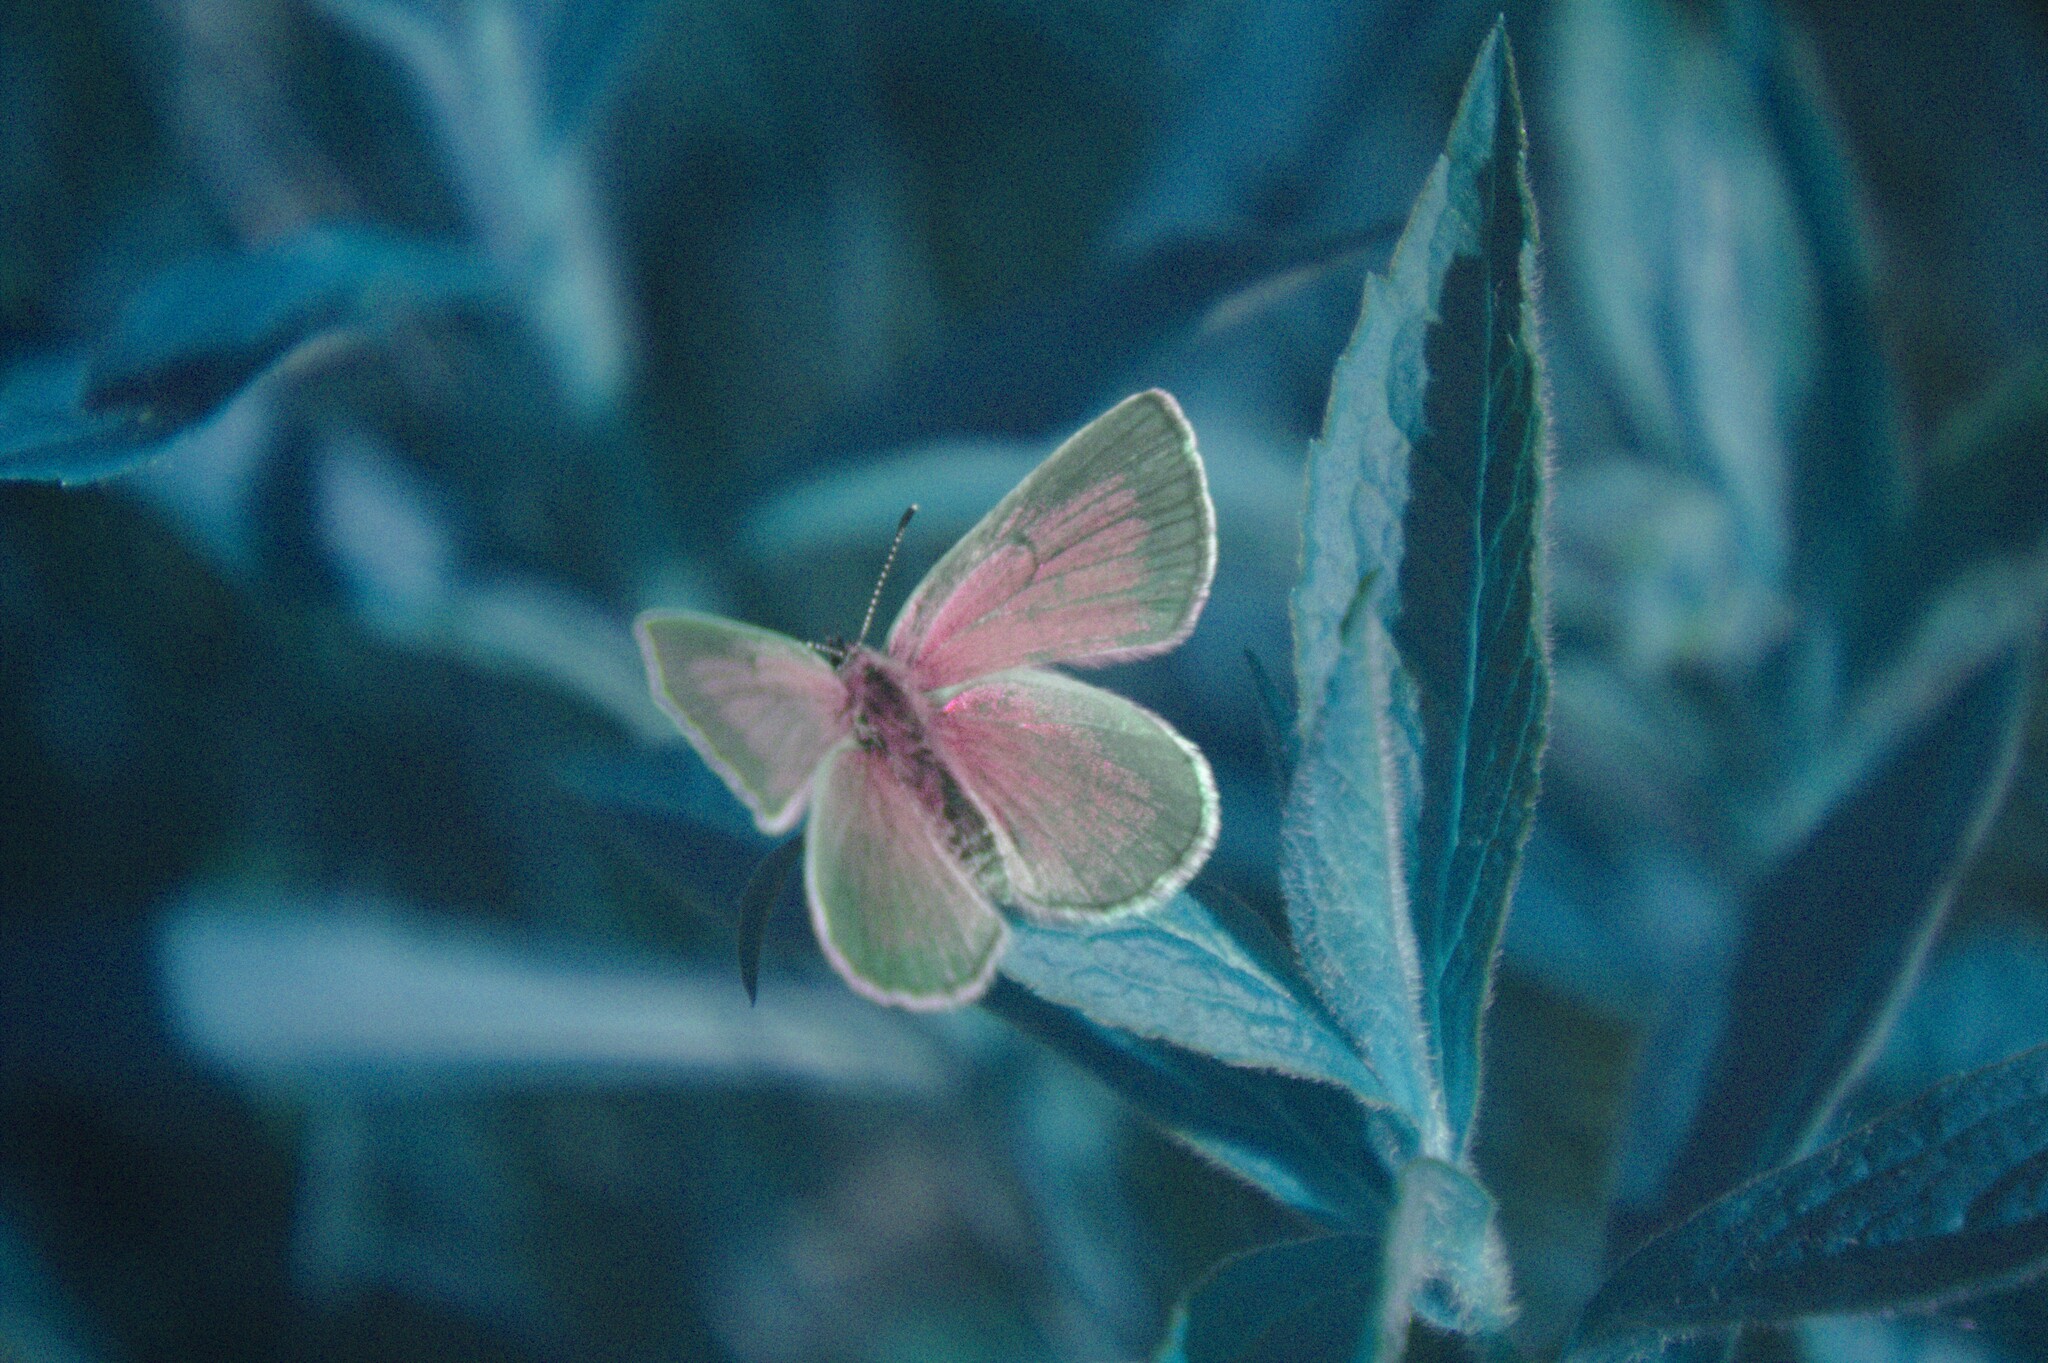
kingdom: Animalia
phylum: Arthropoda
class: Insecta
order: Lepidoptera
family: Lycaenidae
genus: Glaucopsyche
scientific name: Glaucopsyche lygdamus
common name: Silvery blue
